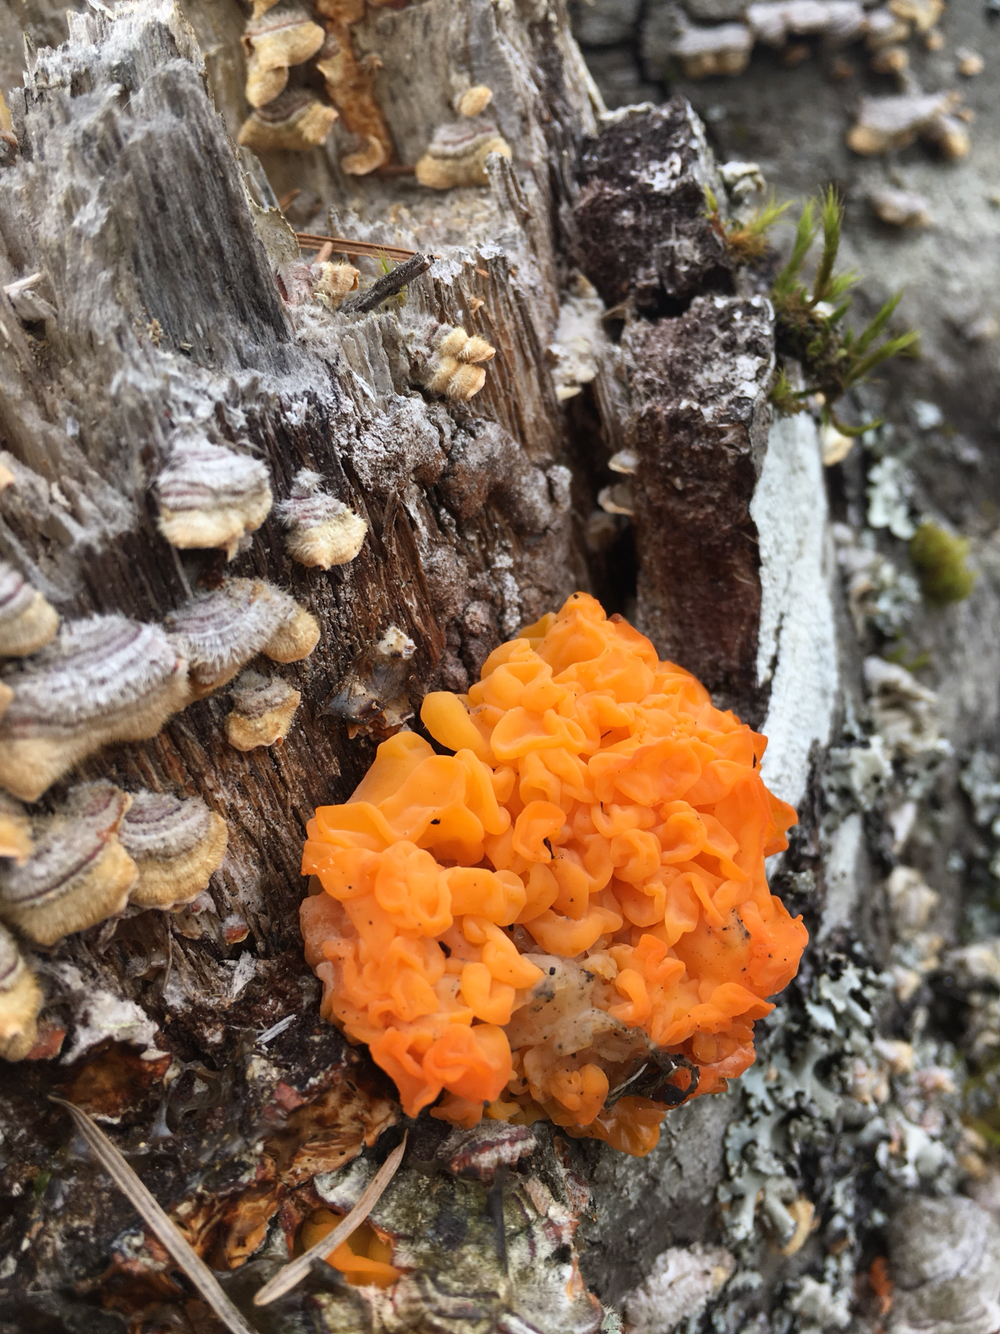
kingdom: Fungi
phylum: Basidiomycota
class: Tremellomycetes
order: Tremellales
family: Naemateliaceae
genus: Naematelia
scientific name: Naematelia aurantia
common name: Golden ear
